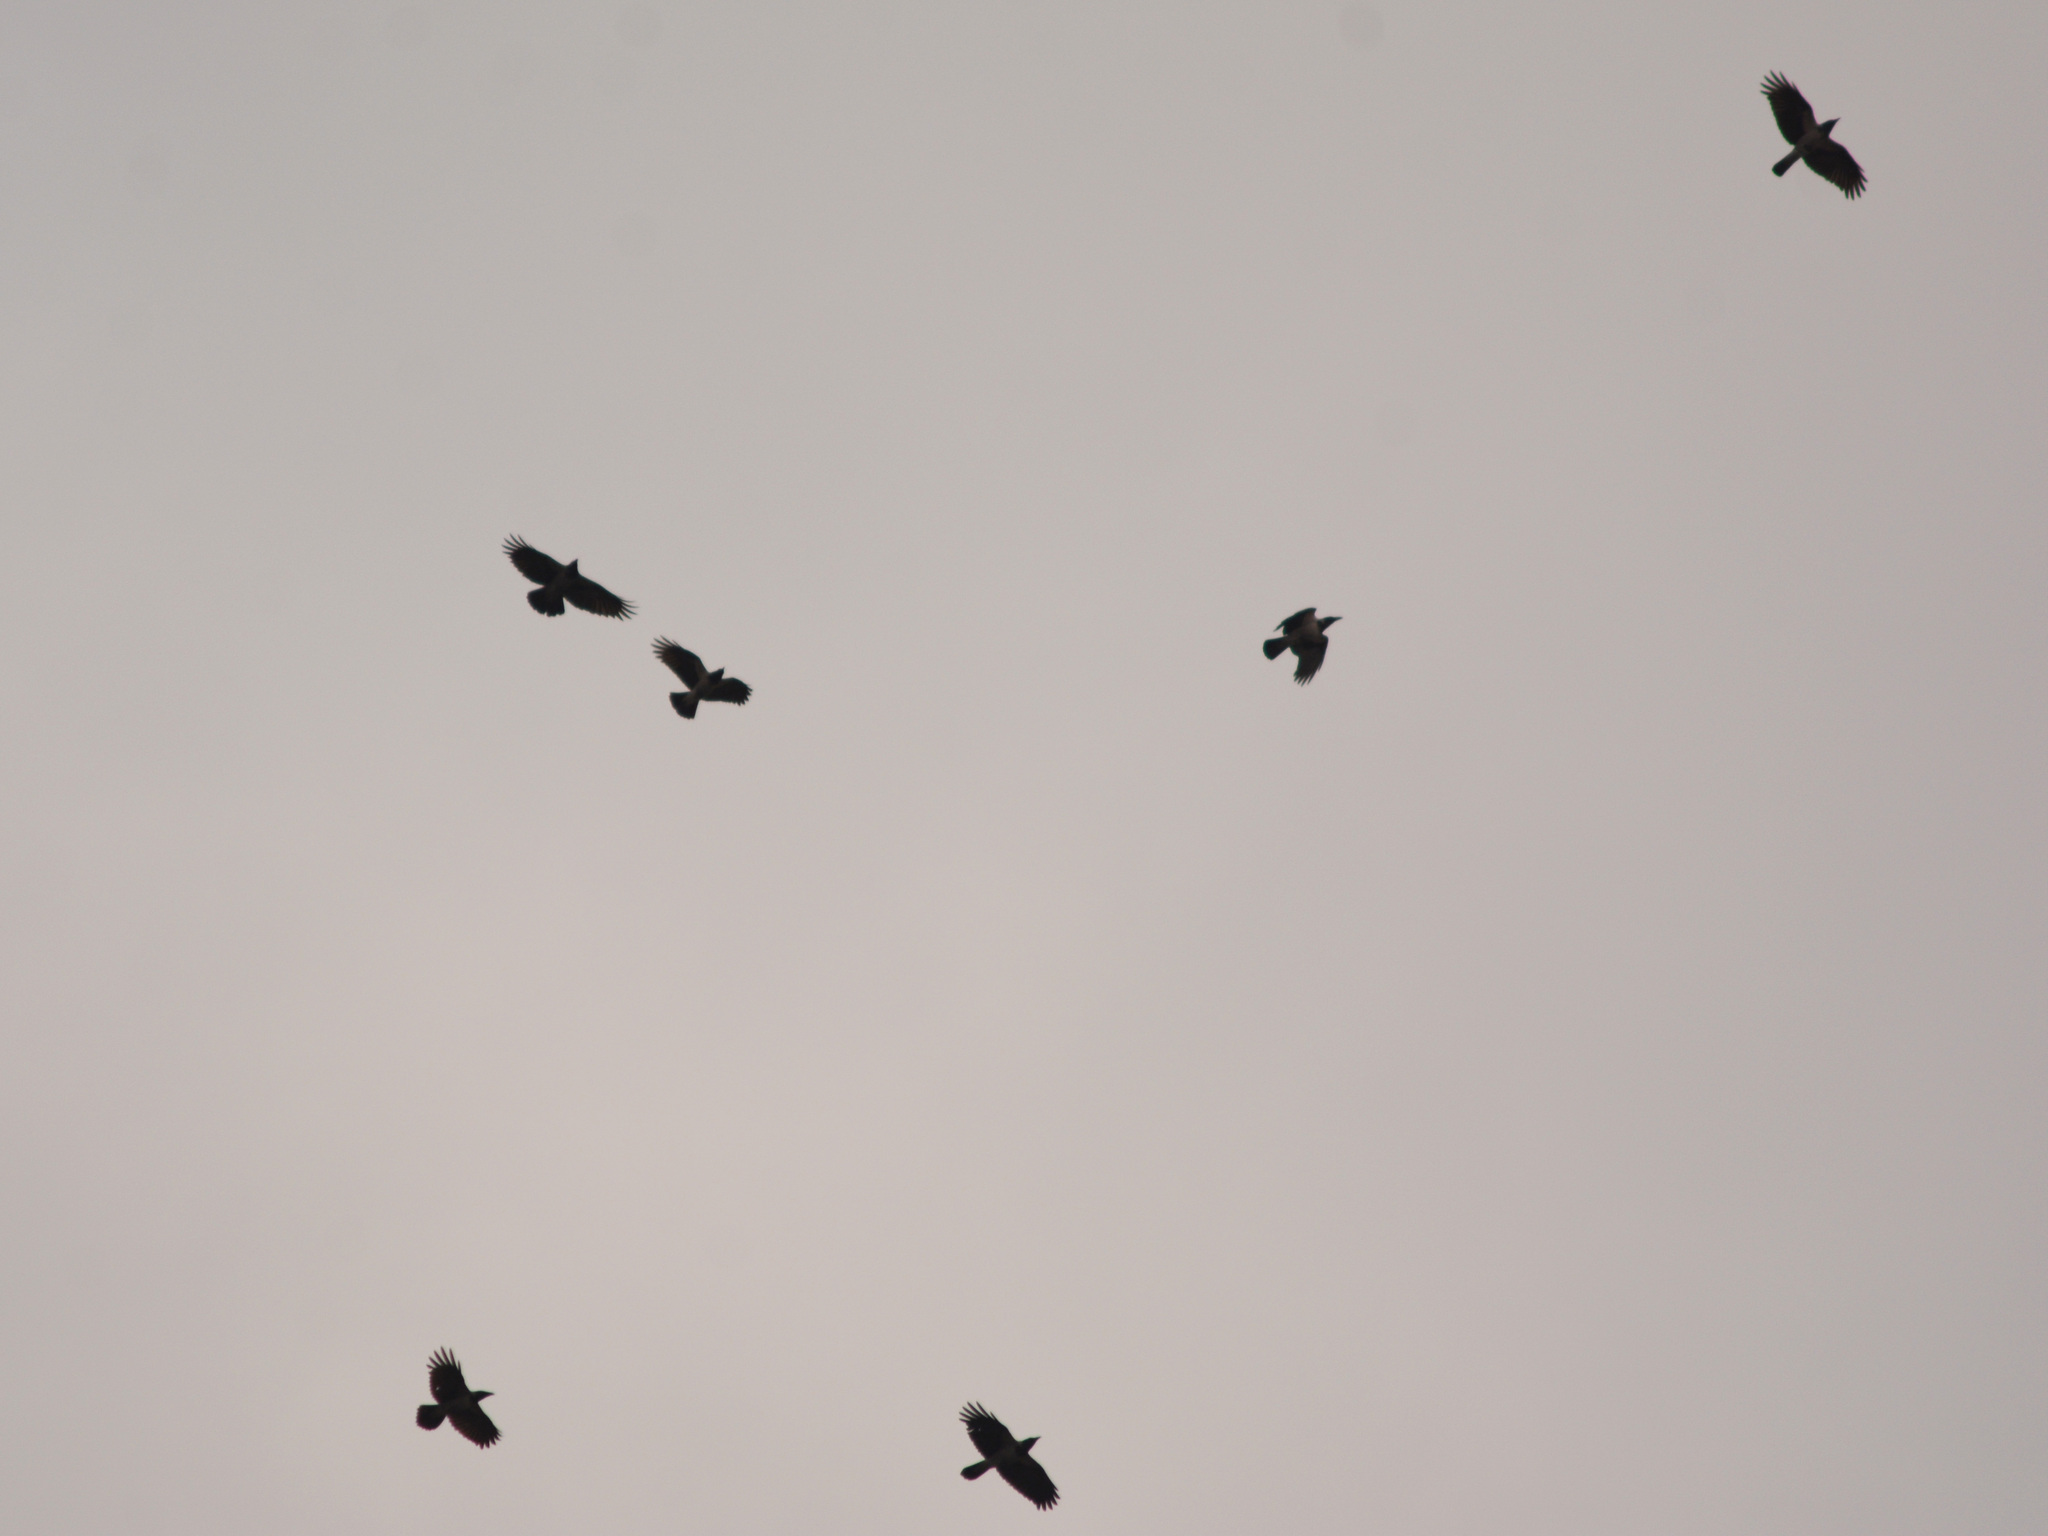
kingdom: Animalia
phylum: Chordata
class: Aves
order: Passeriformes
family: Corvidae
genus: Corvus
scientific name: Corvus cornix
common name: Hooded crow
